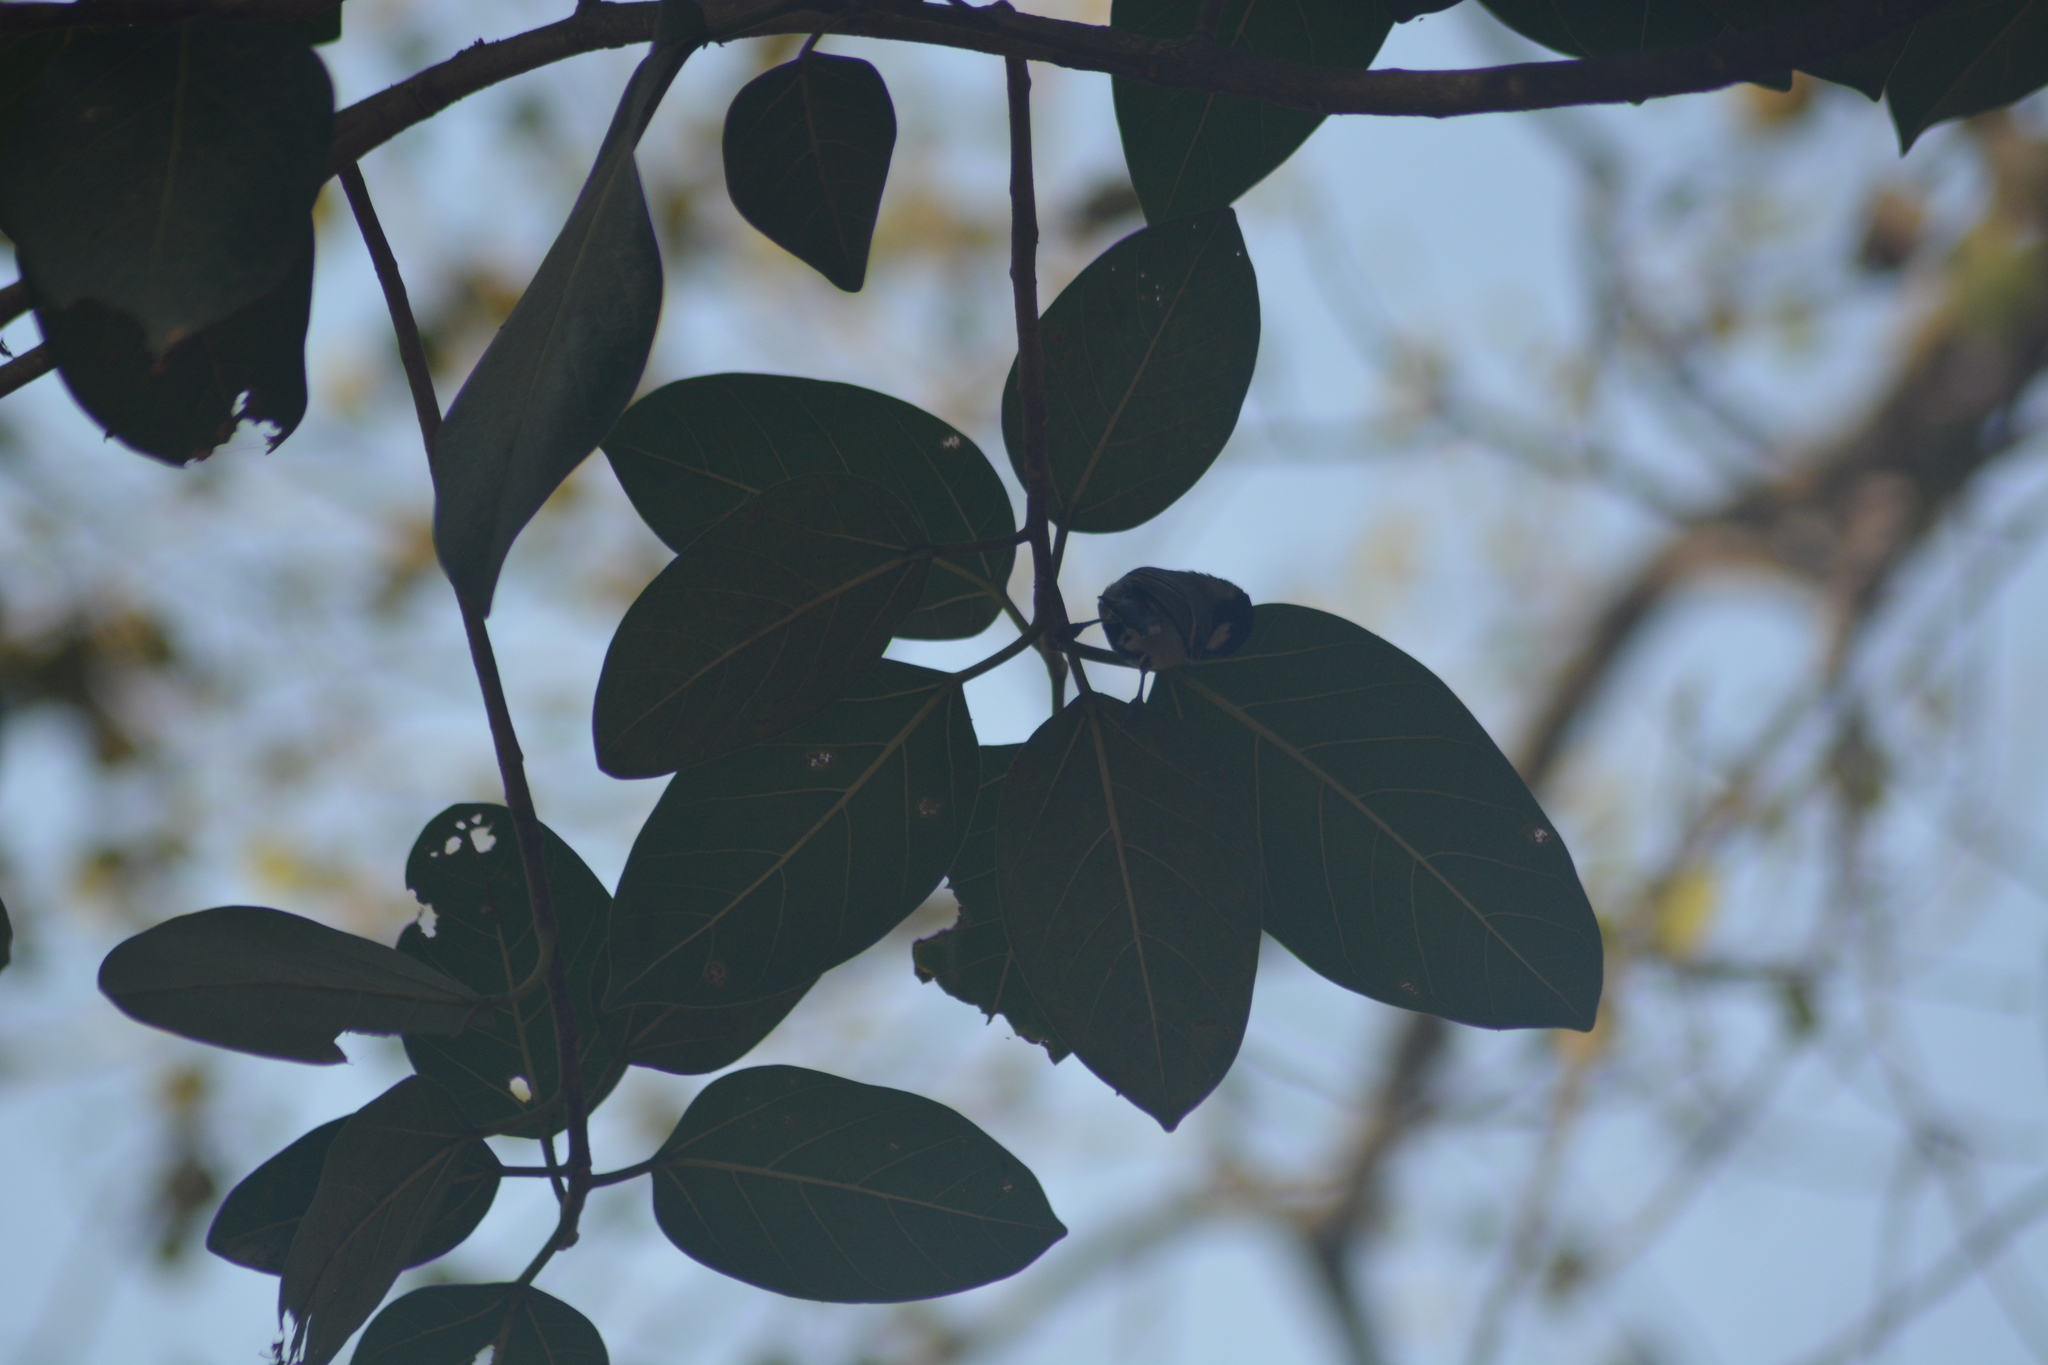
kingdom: Animalia
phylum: Chordata
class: Aves
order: Passeriformes
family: Paridae
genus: Parus
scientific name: Parus cinereus
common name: Cinereous tit
